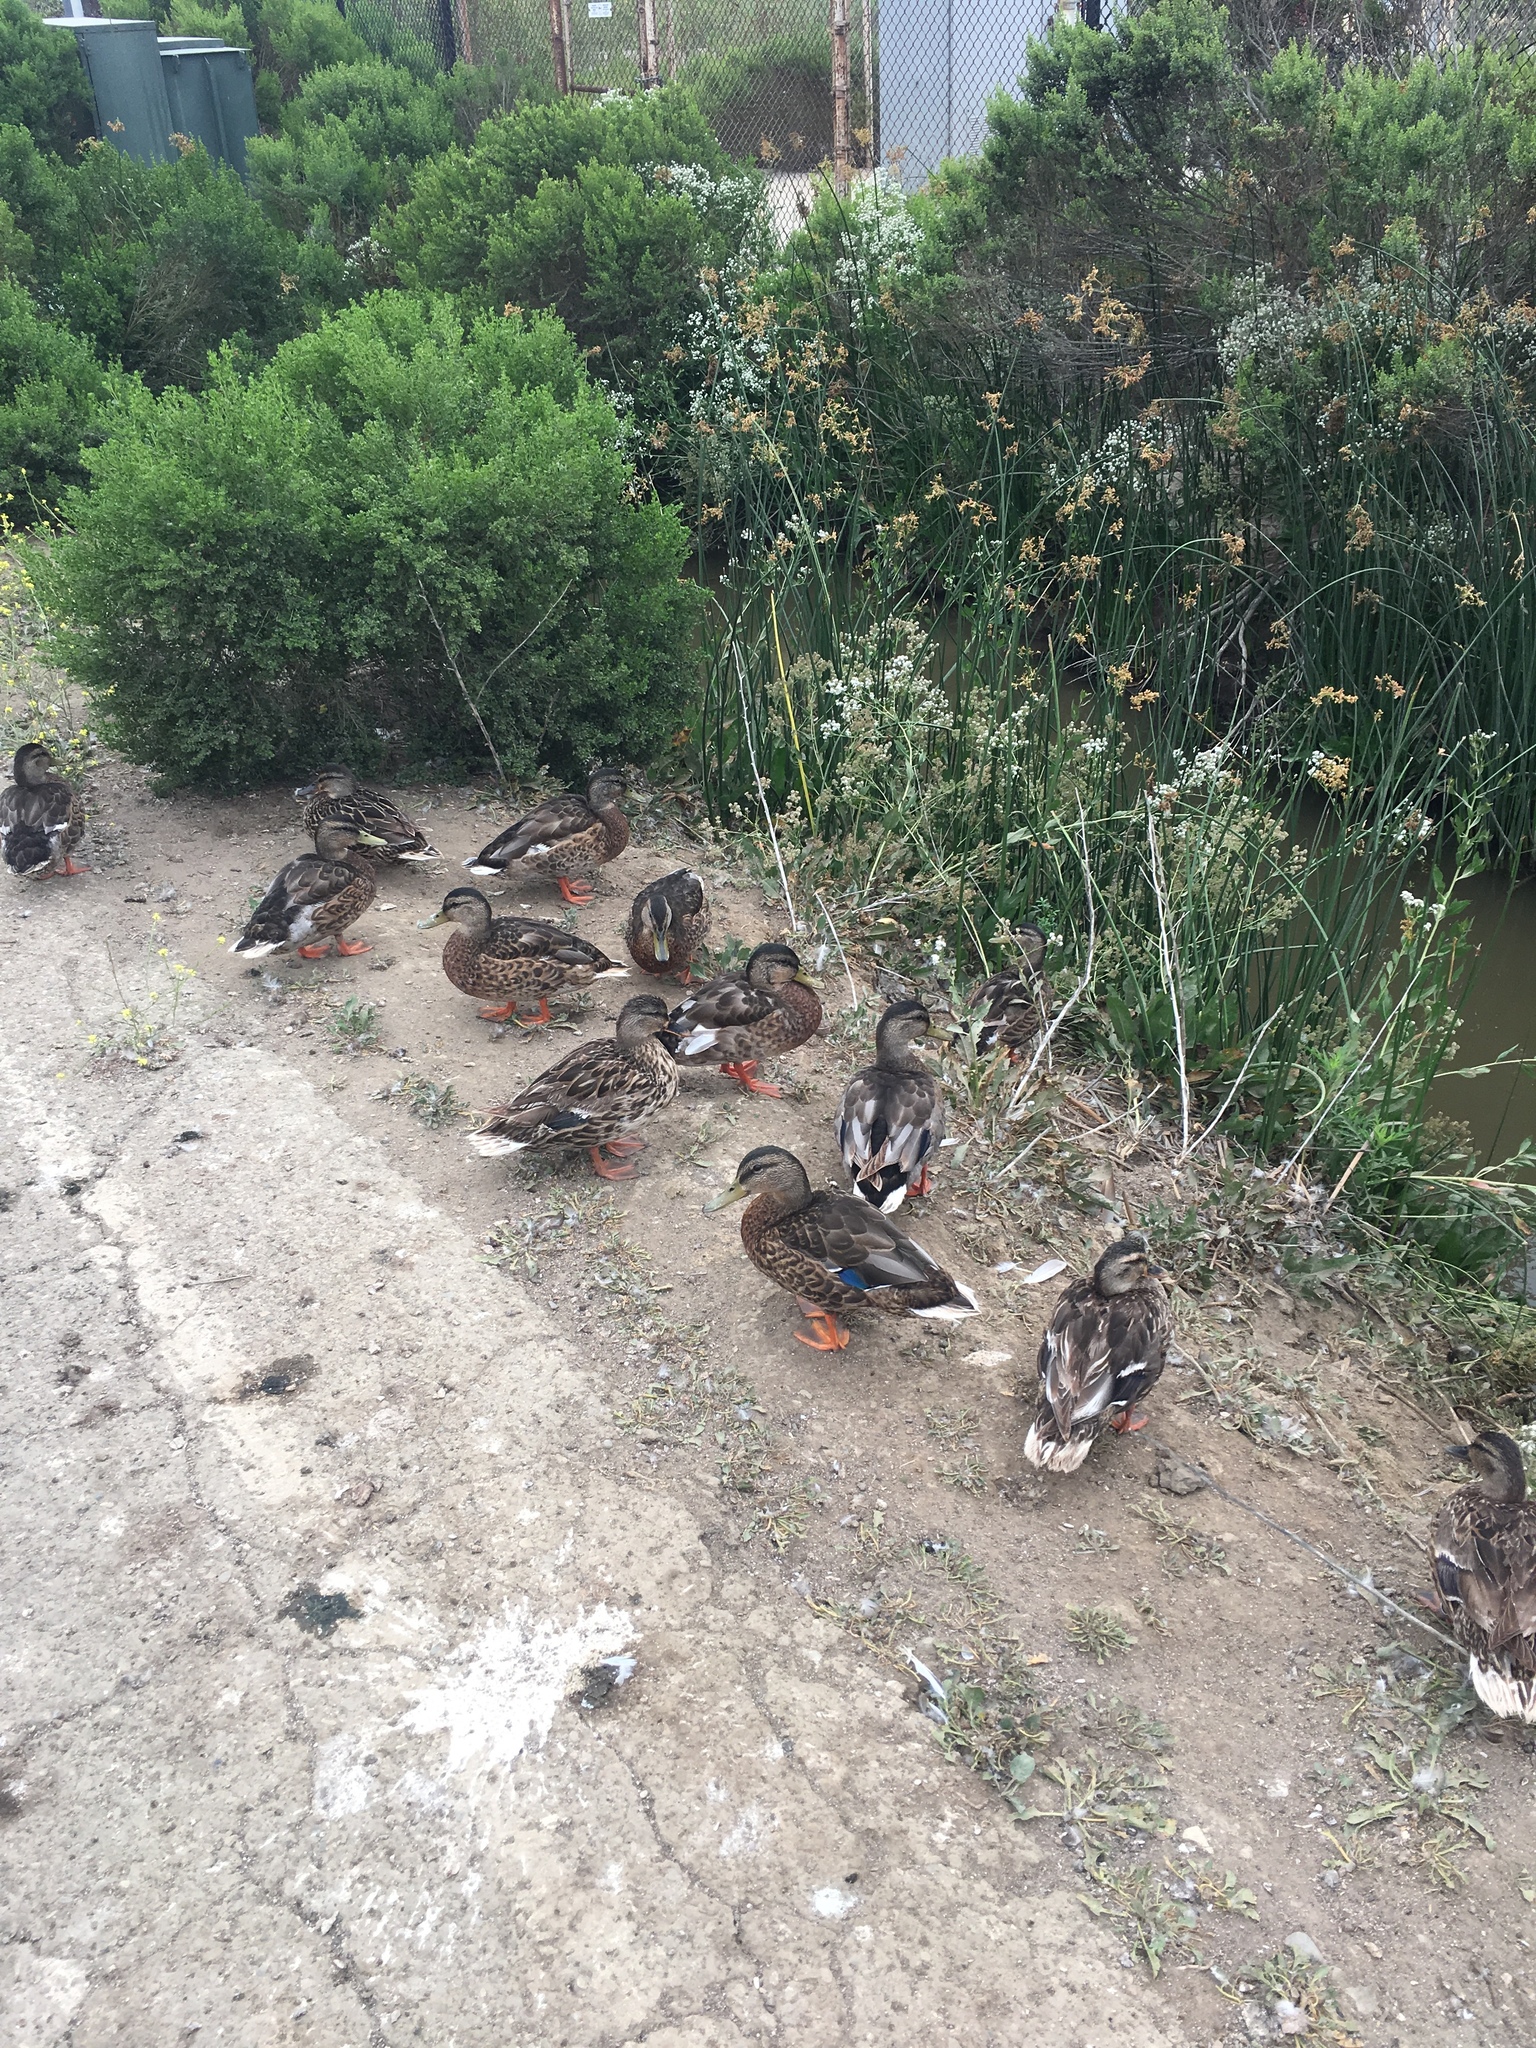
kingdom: Animalia
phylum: Chordata
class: Aves
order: Anseriformes
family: Anatidae
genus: Anas
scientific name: Anas platyrhynchos
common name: Mallard
